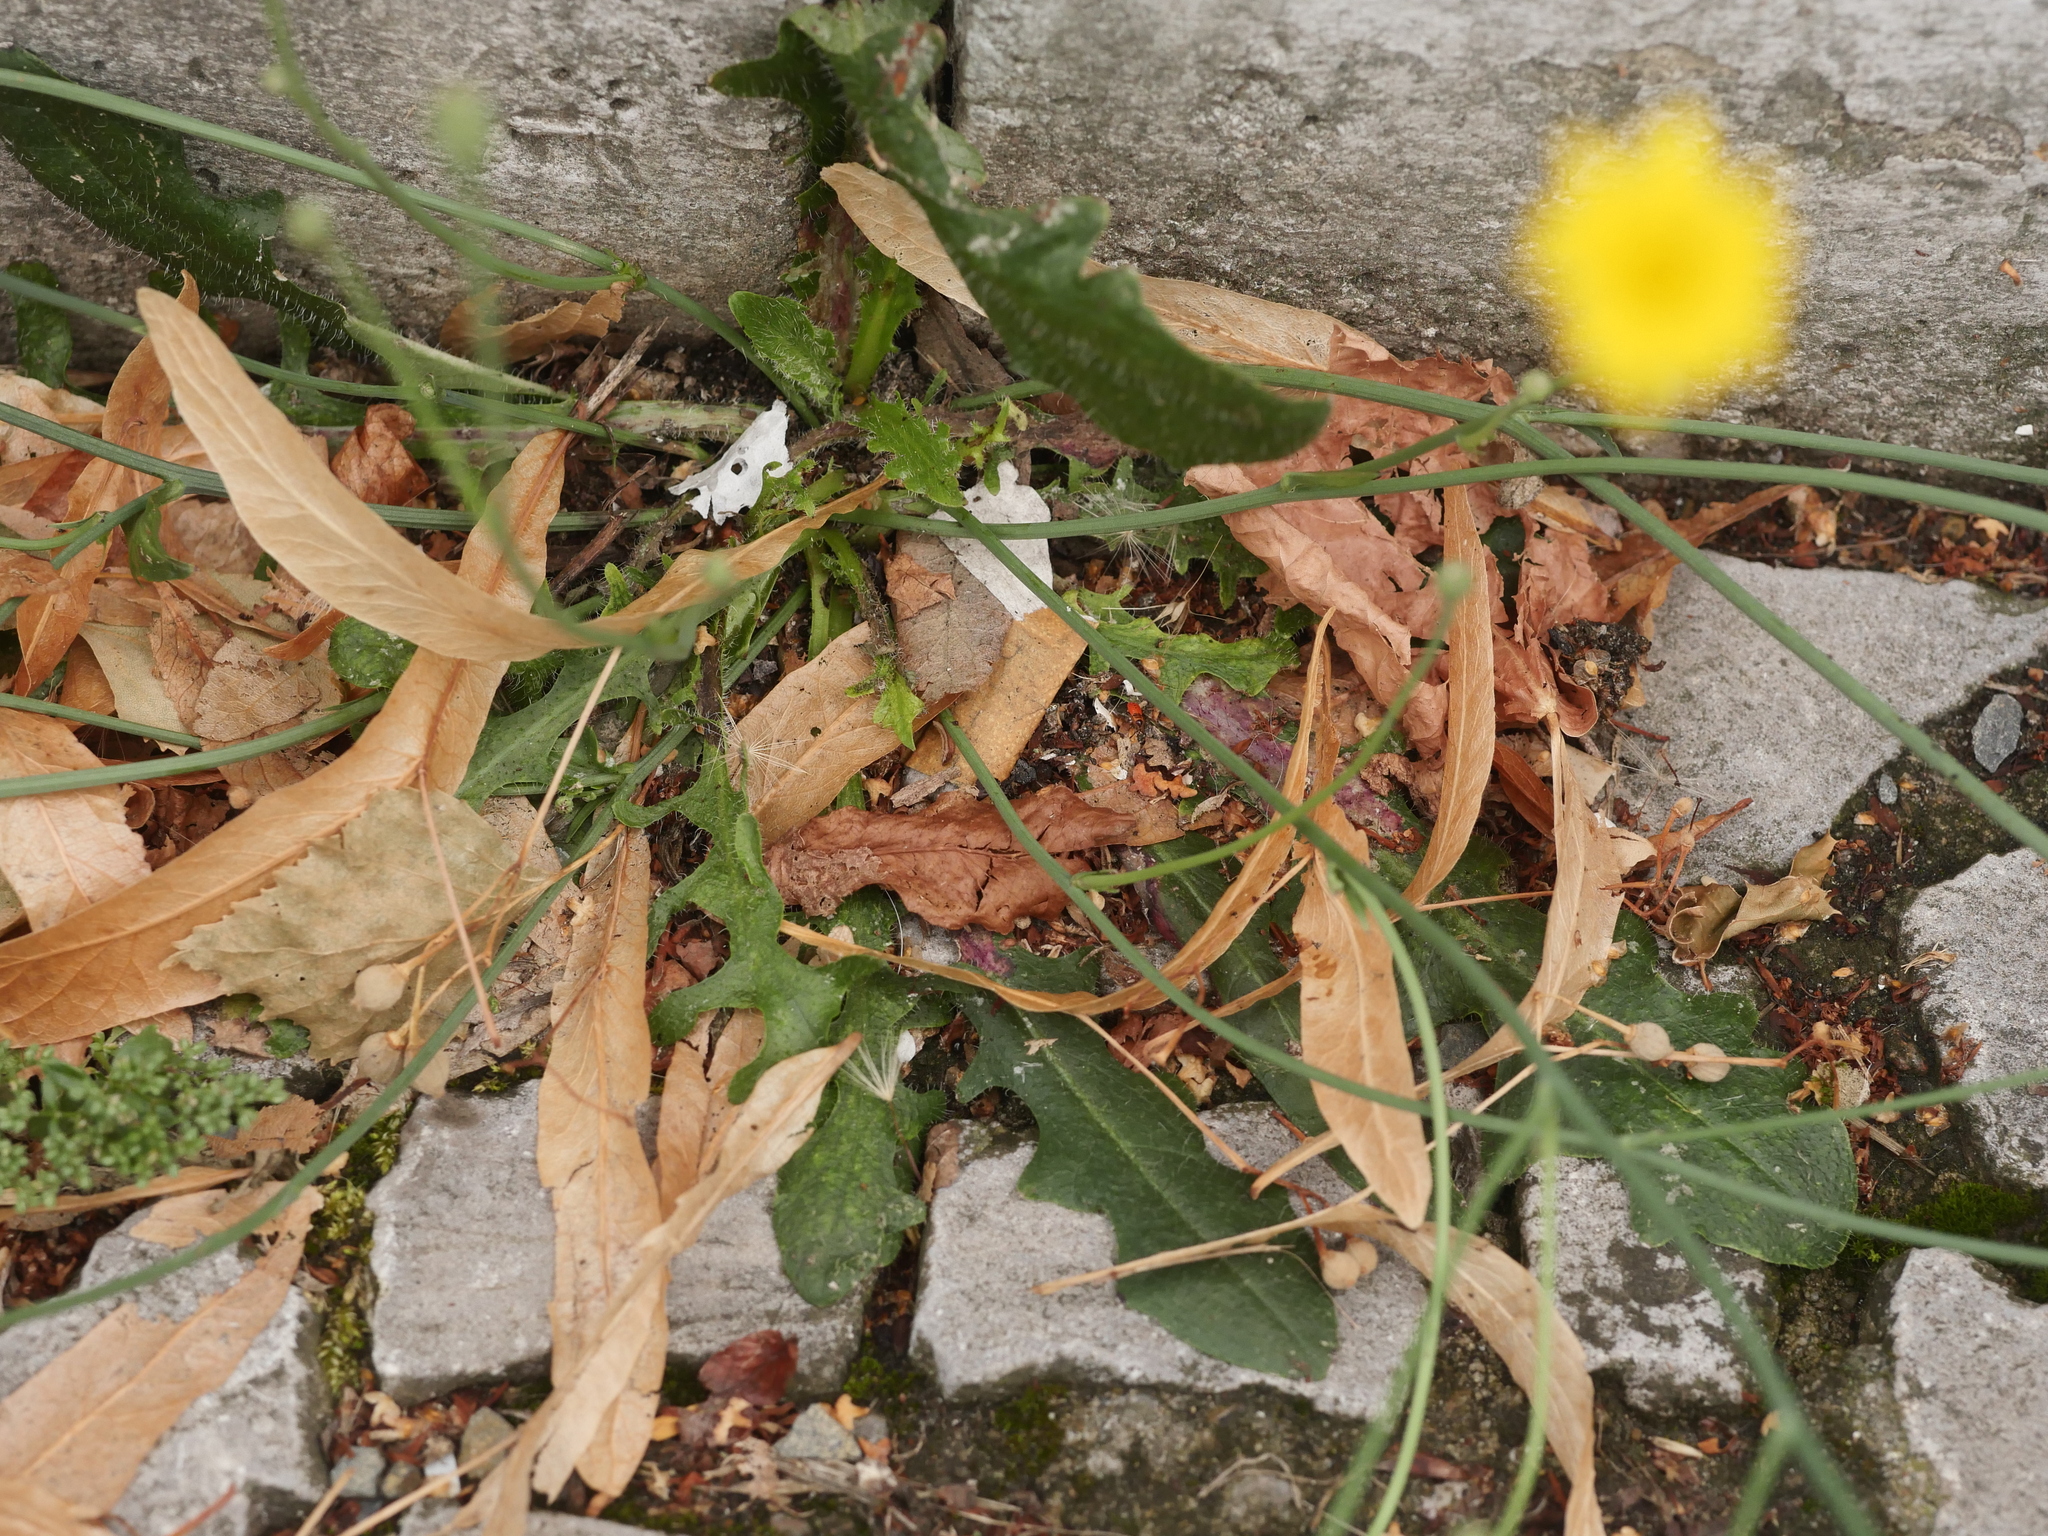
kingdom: Plantae
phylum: Tracheophyta
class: Magnoliopsida
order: Asterales
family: Asteraceae
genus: Hypochaeris
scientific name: Hypochaeris radicata
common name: Flatweed
